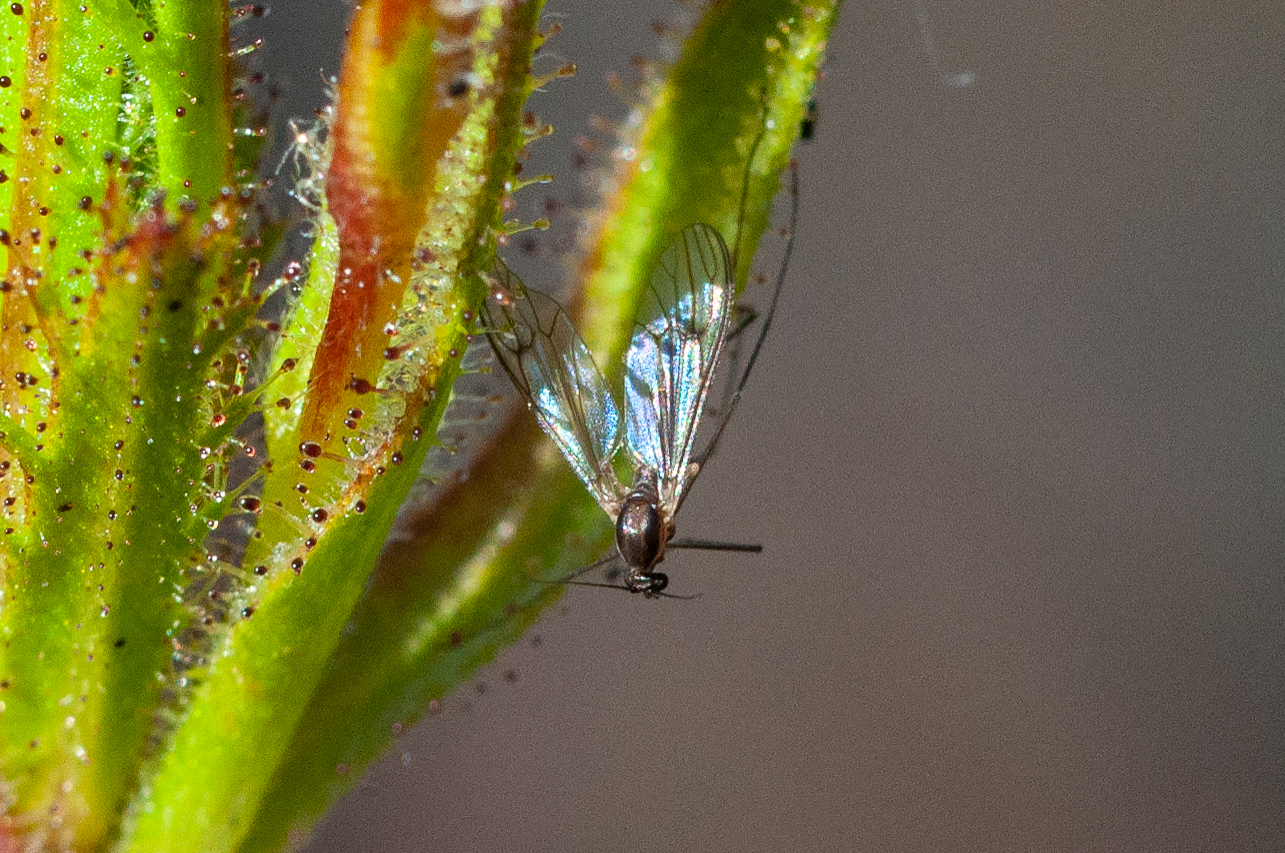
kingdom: Animalia
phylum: Arthropoda
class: Insecta
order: Diptera
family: Dixidae
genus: Peytonulus
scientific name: Peytonulus Dixa capensis
